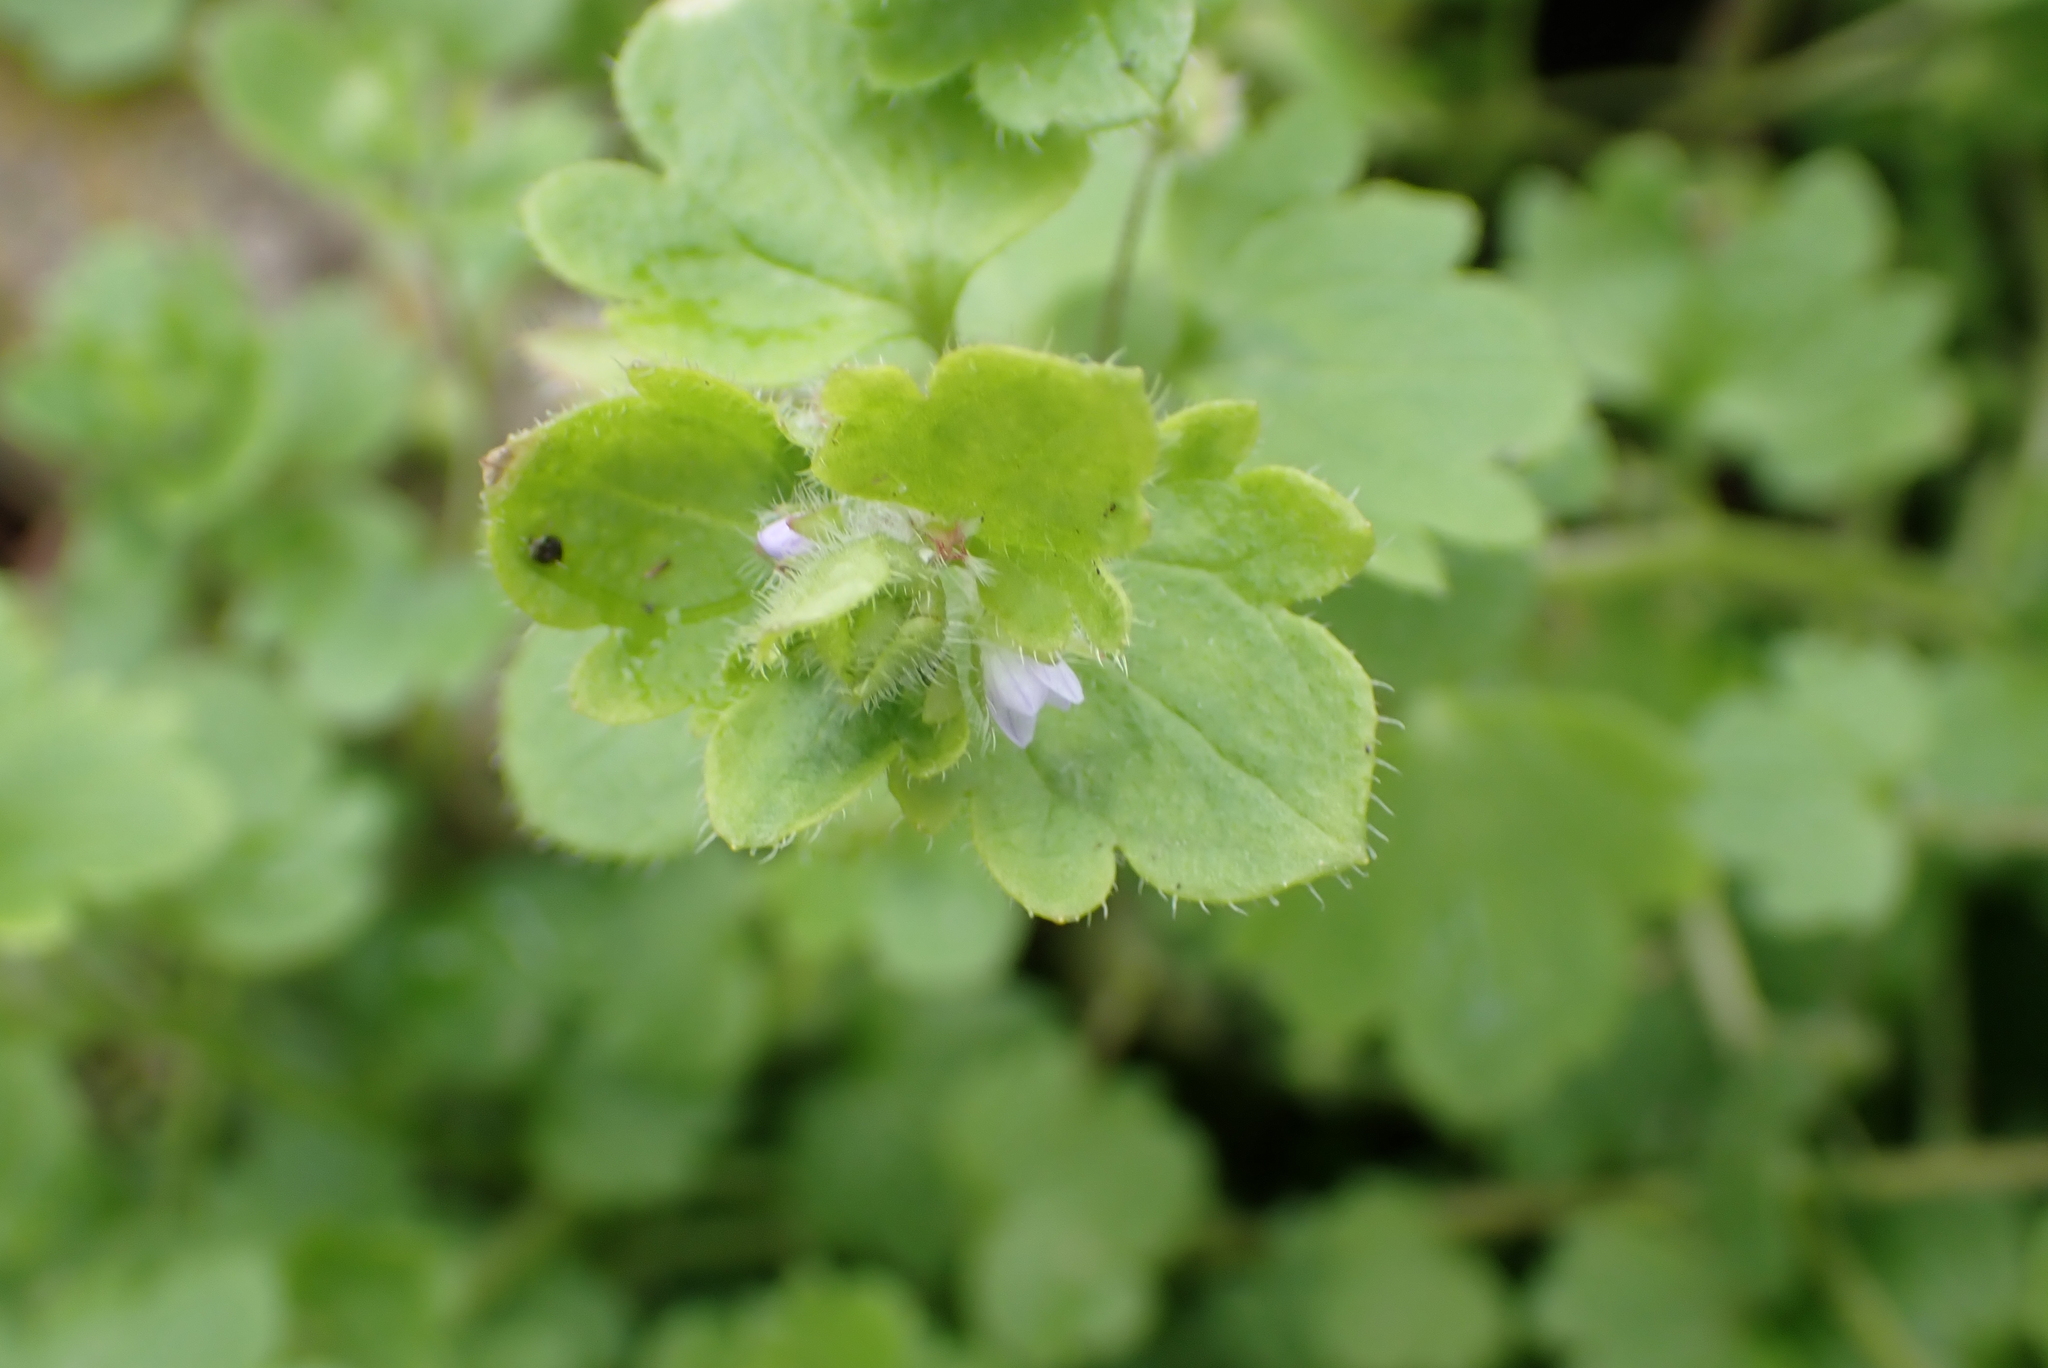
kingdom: Plantae
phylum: Tracheophyta
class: Magnoliopsida
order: Lamiales
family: Plantaginaceae
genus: Veronica
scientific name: Veronica sublobata
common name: False ivy-leaved speedwell
